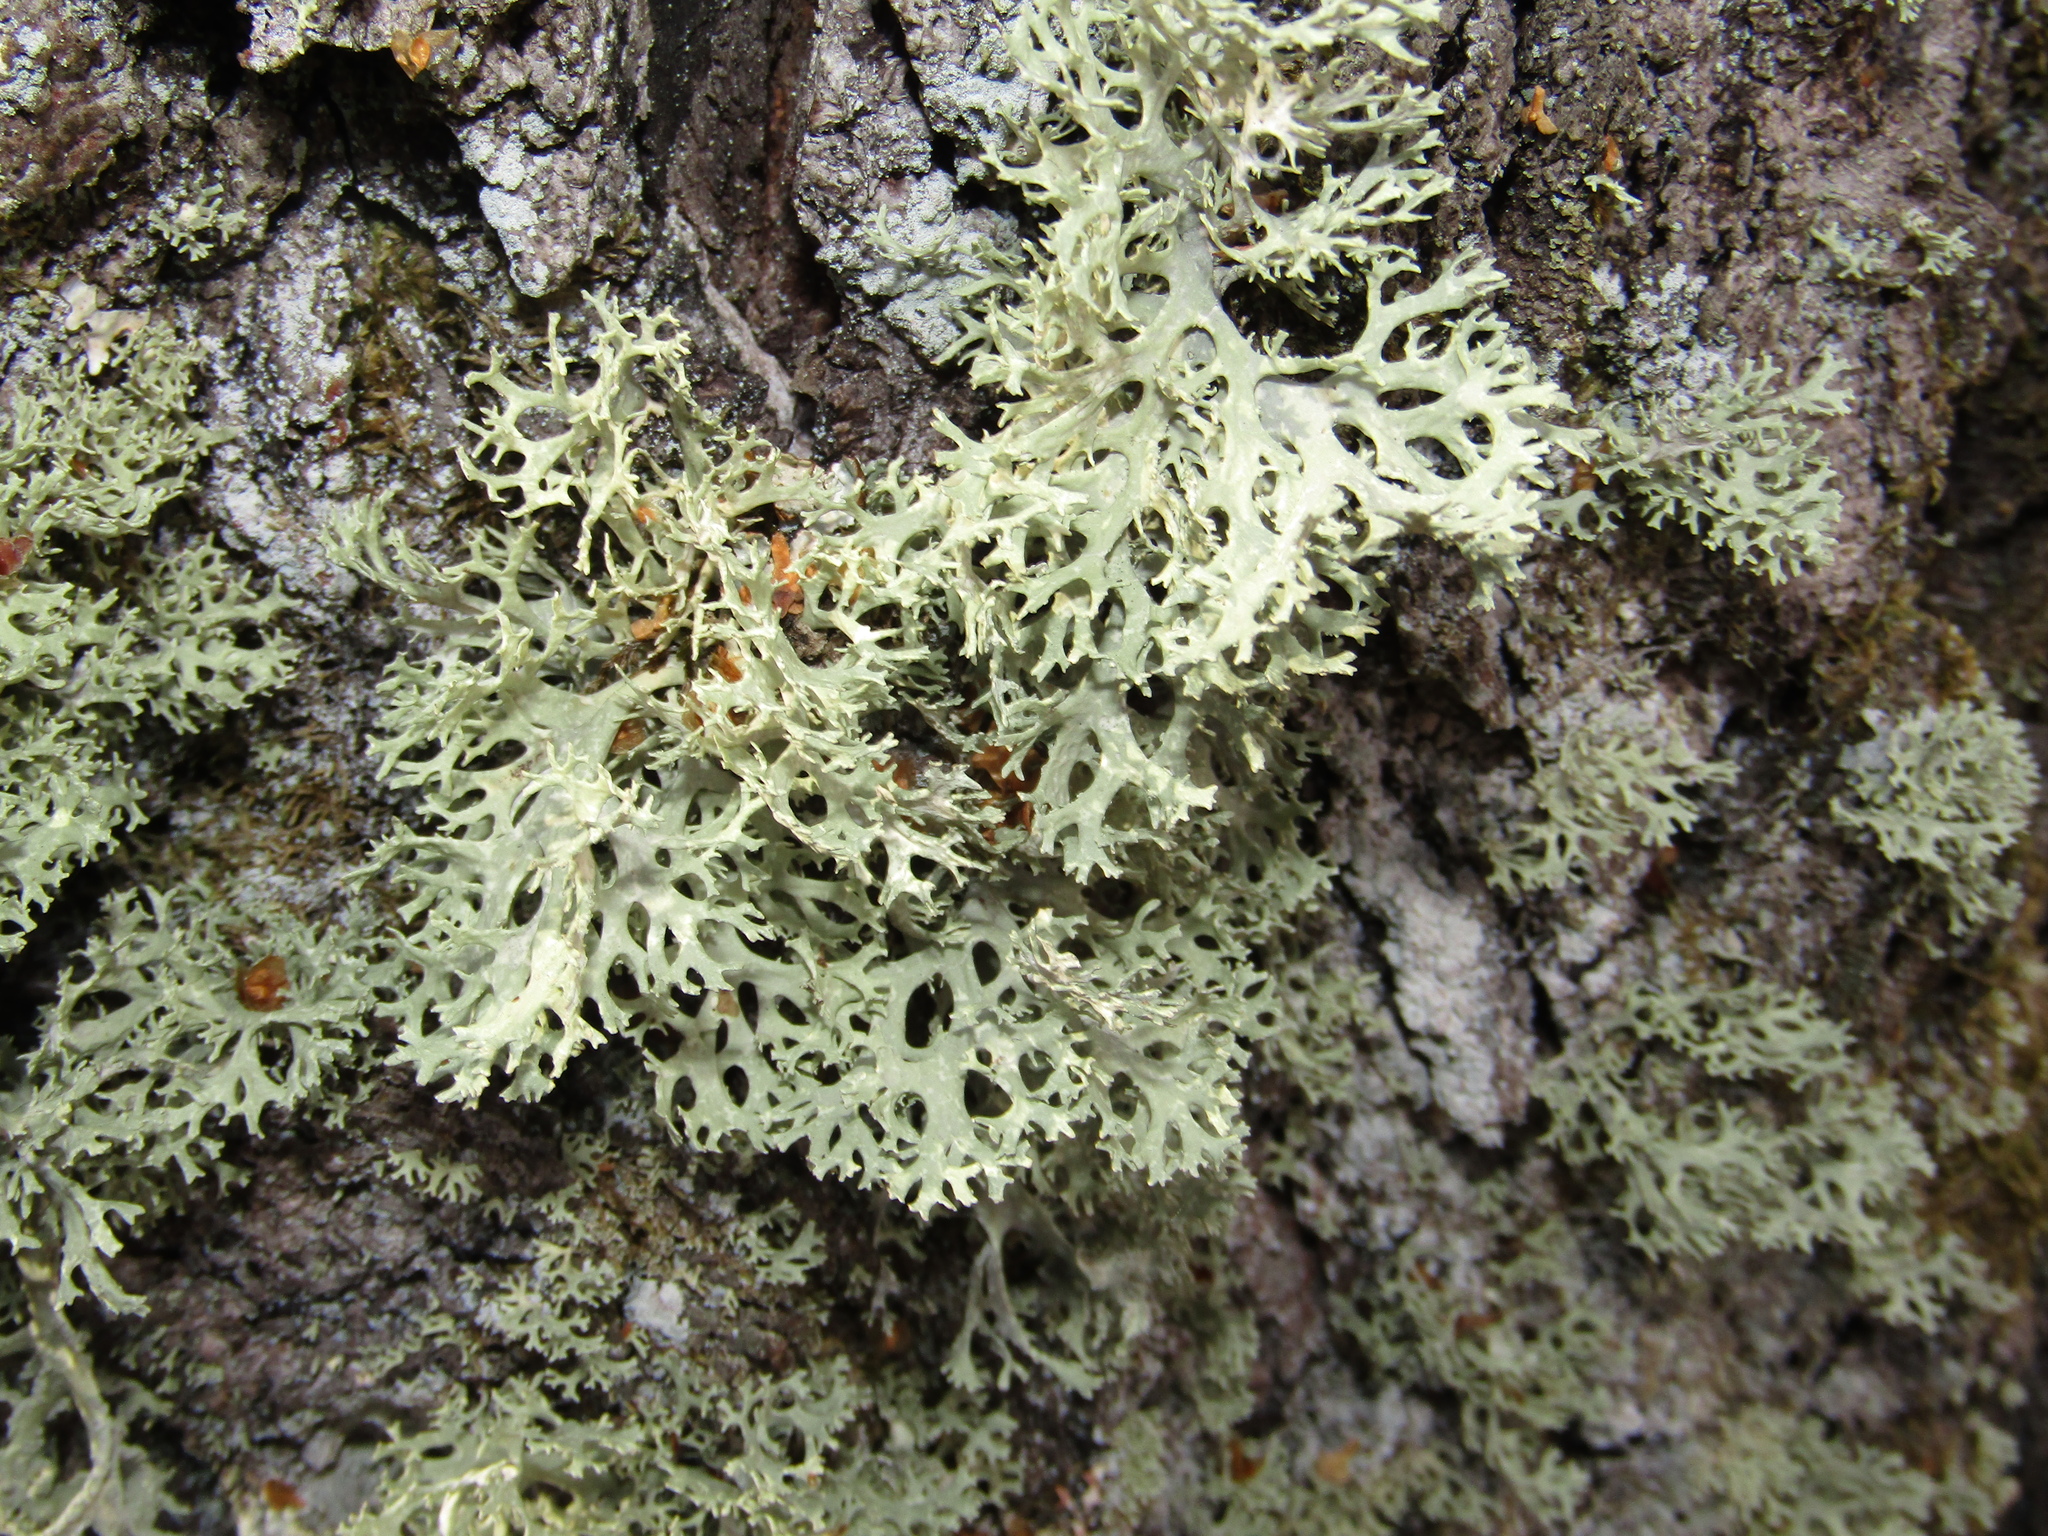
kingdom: Fungi
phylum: Ascomycota
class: Lecanoromycetes
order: Lecanorales
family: Parmeliaceae
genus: Evernia
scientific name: Evernia prunastri
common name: Oak moss
